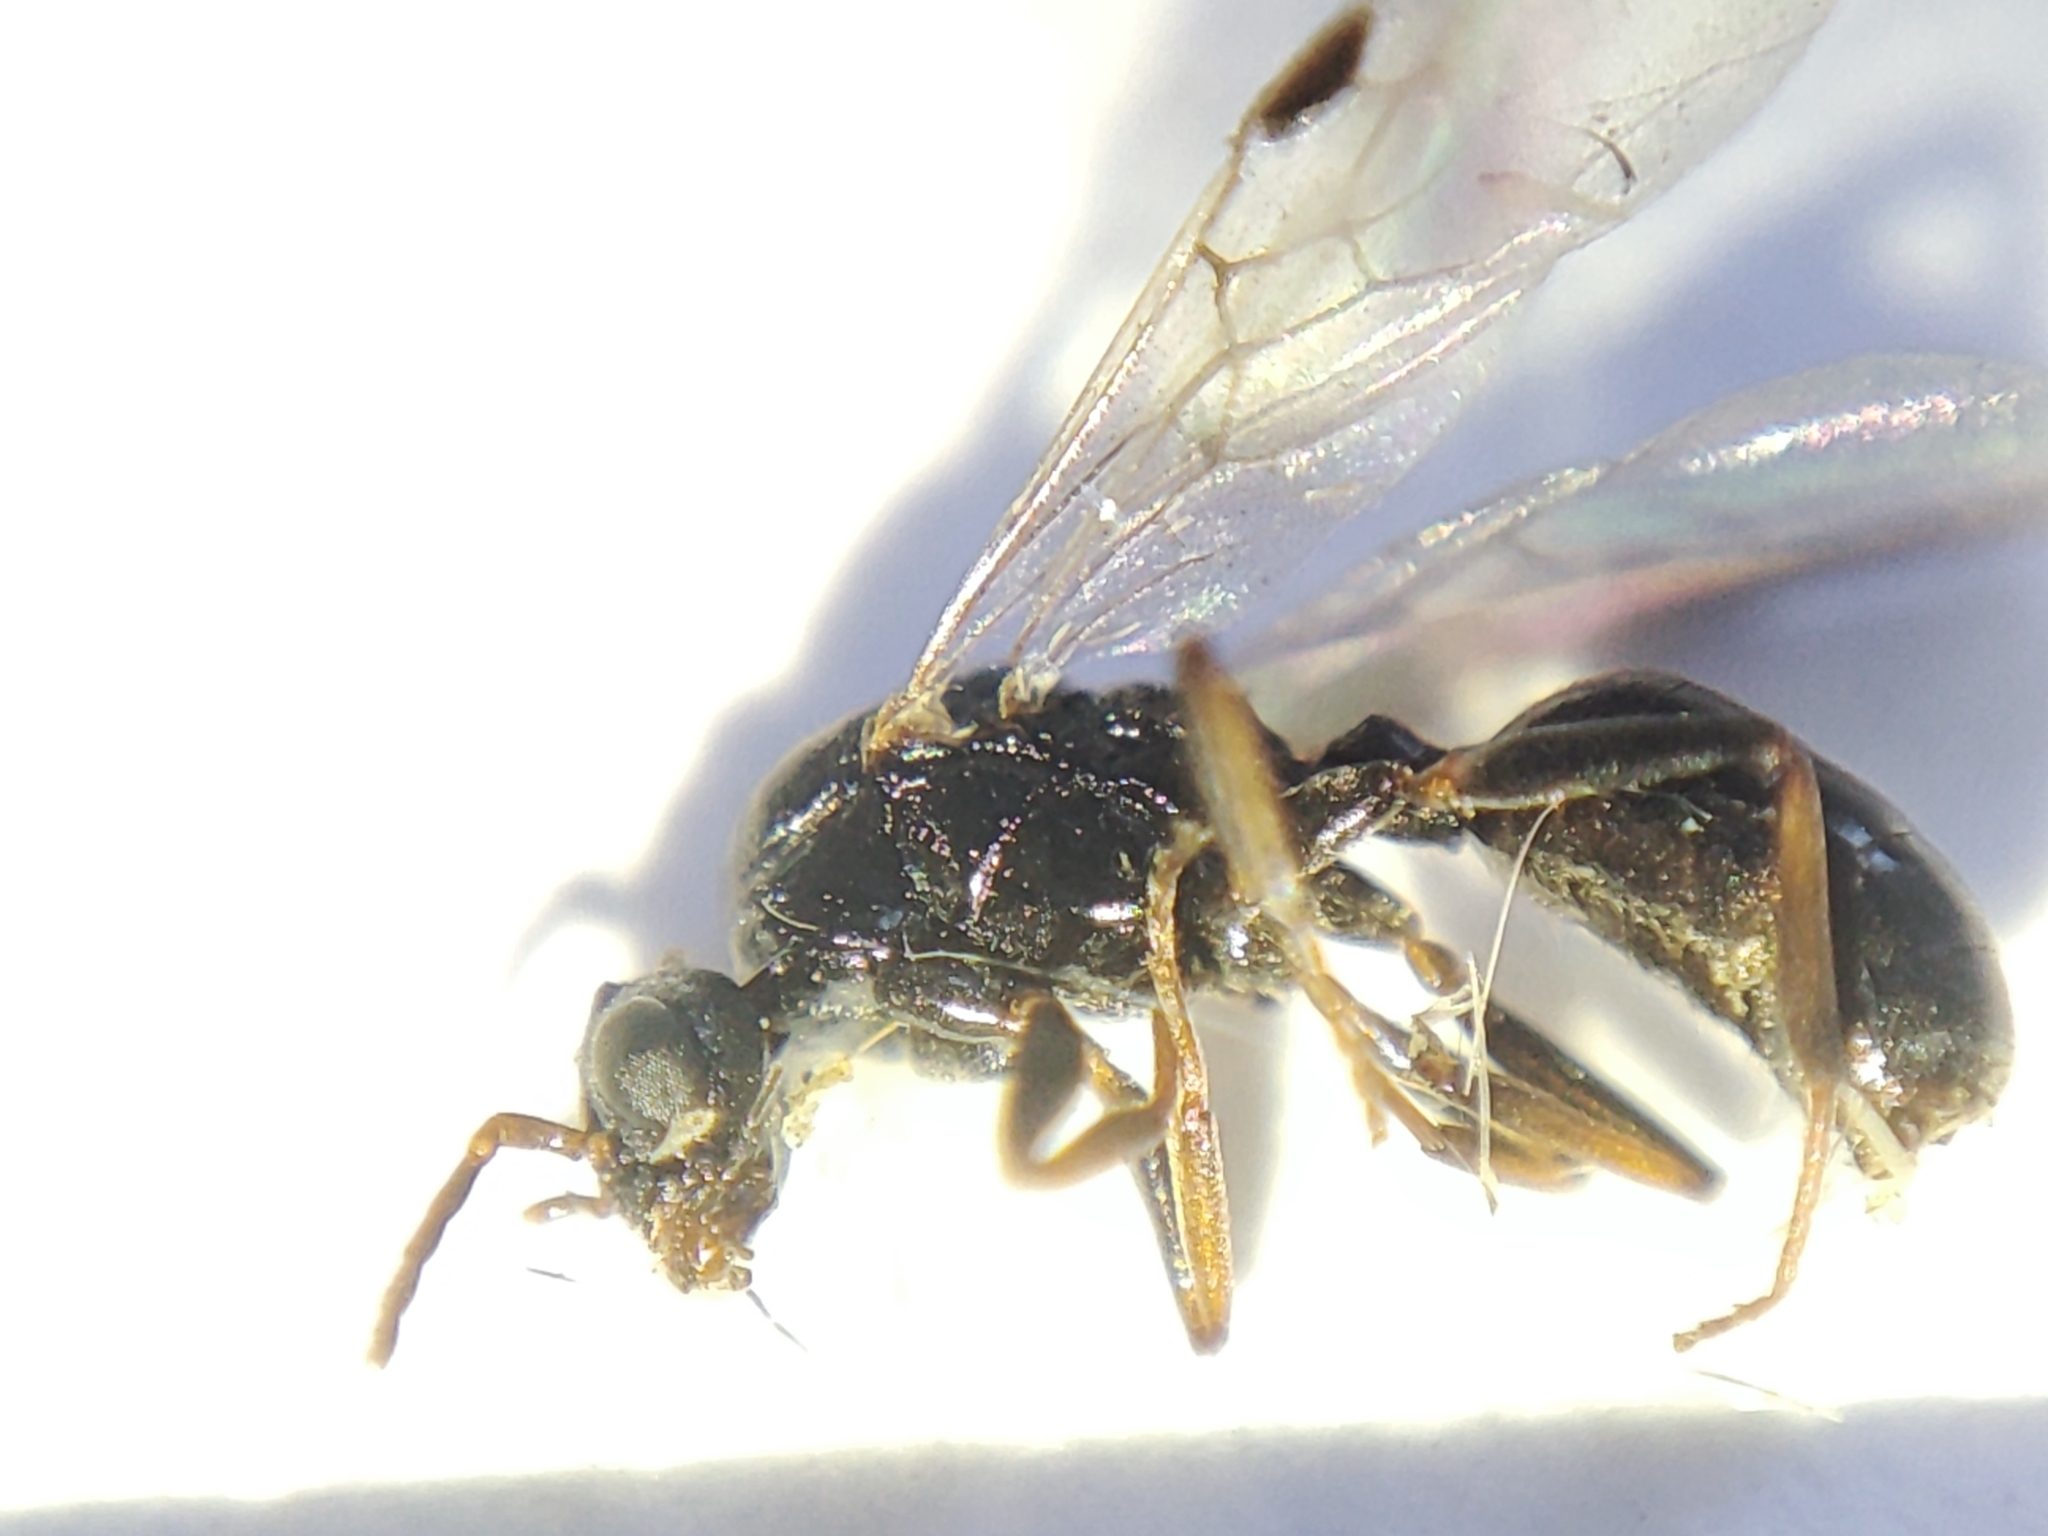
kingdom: Animalia
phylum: Arthropoda
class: Insecta
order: Hymenoptera
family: Formicidae
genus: Dolichoderus
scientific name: Dolichoderus quadripunctatus
